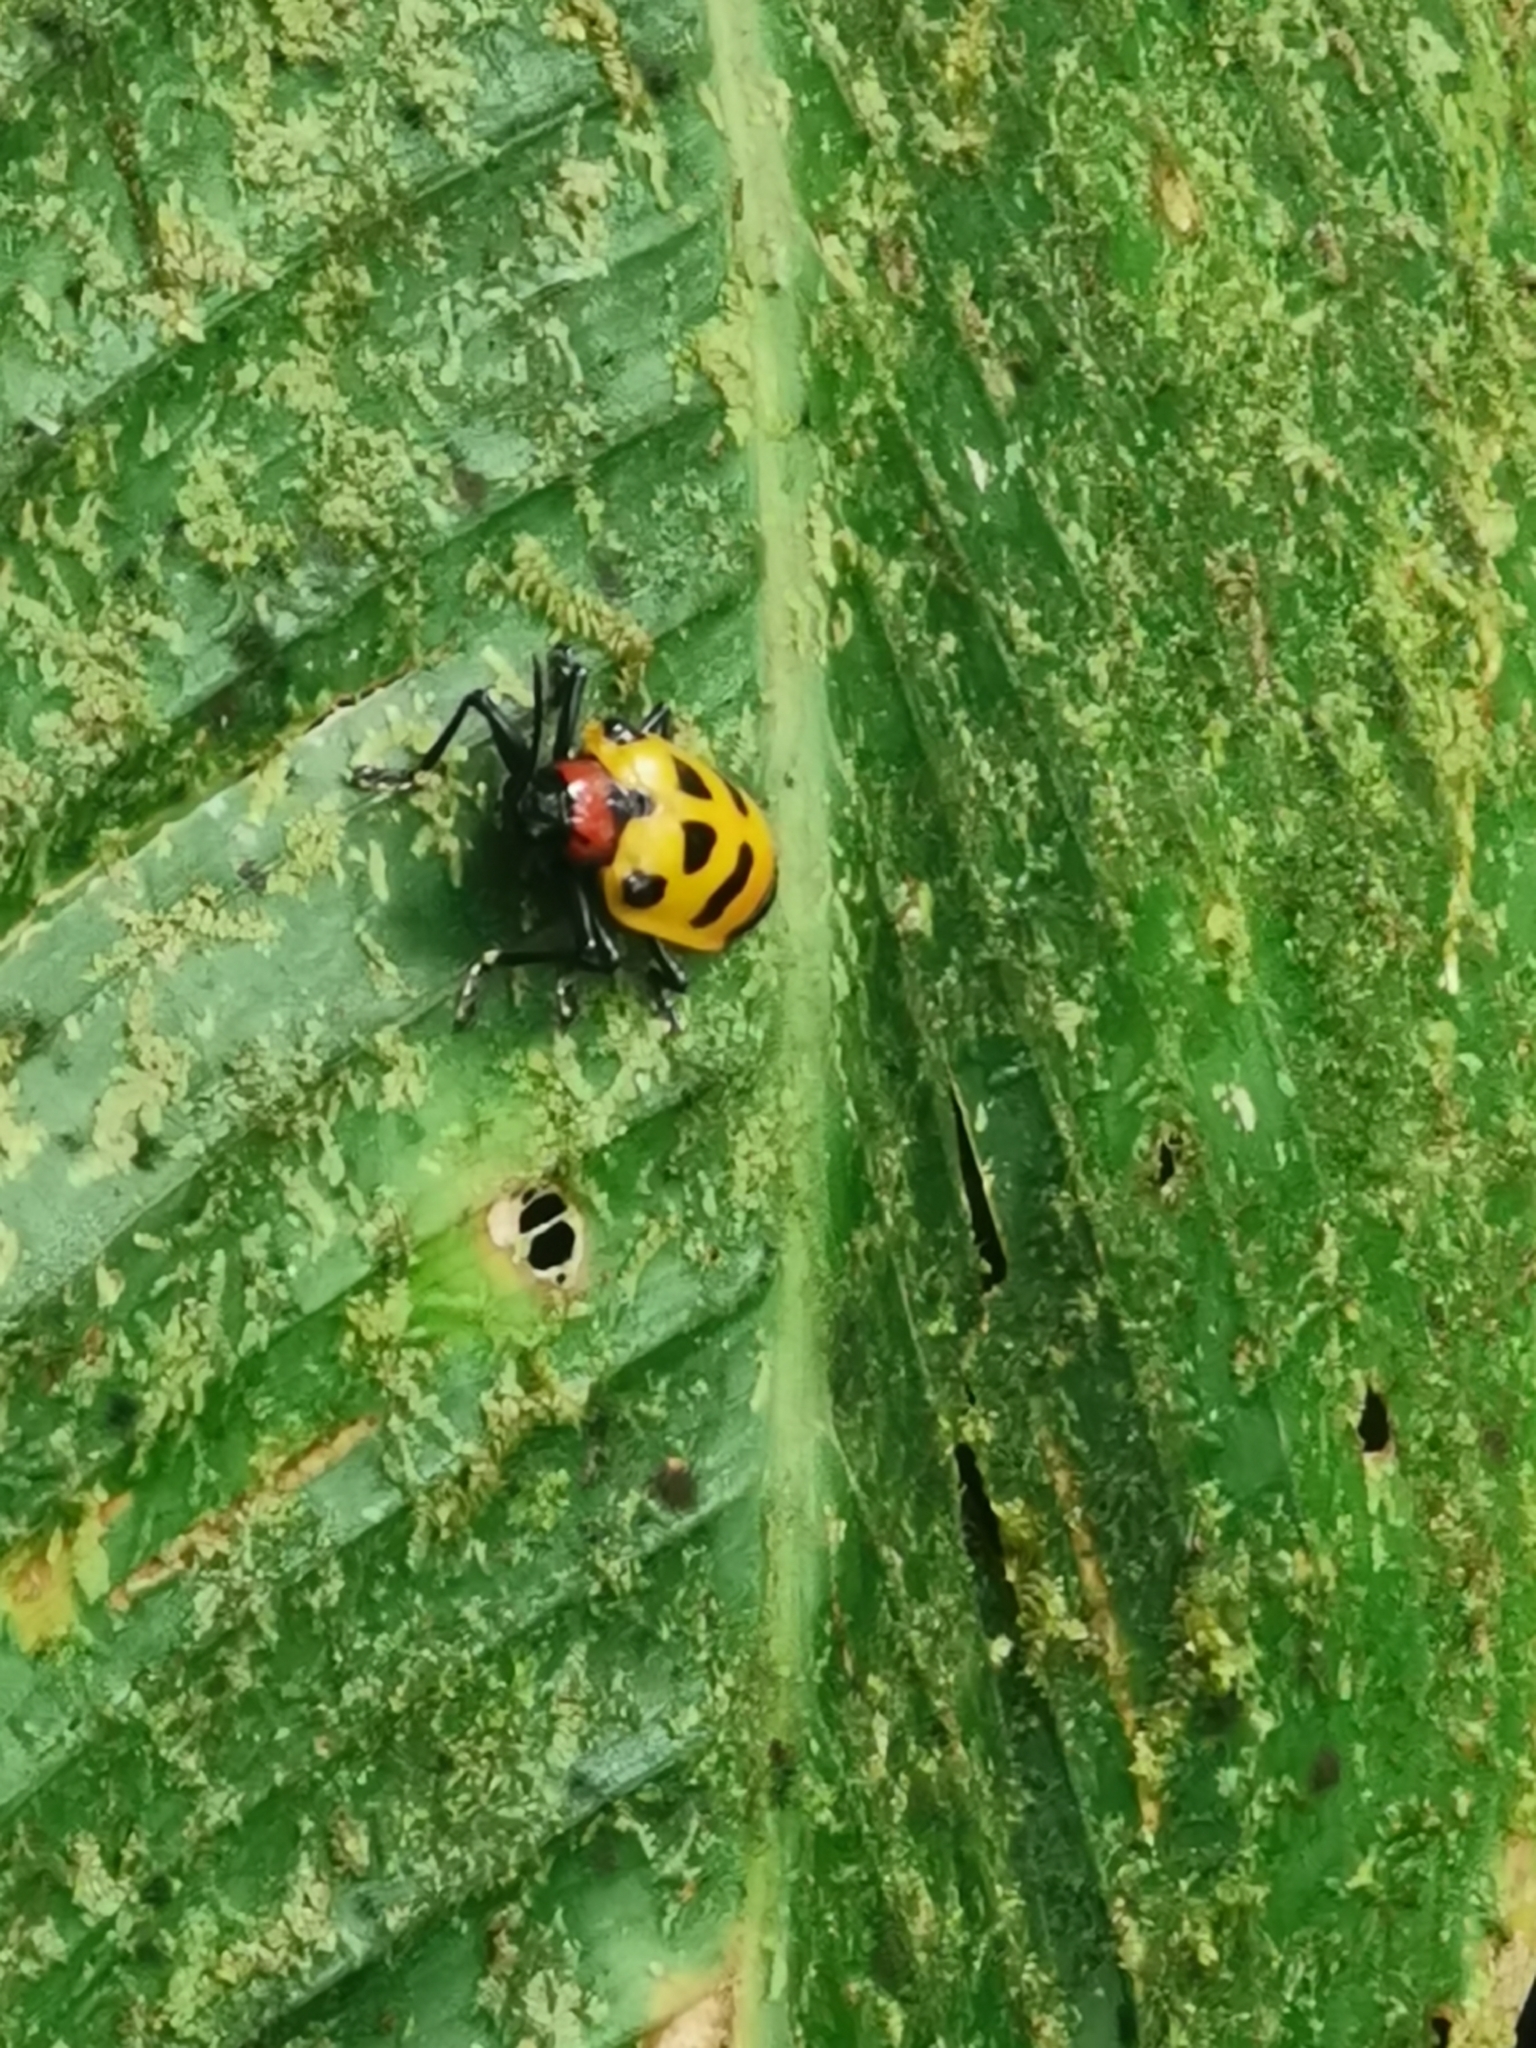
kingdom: Animalia
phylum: Arthropoda
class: Insecta
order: Coleoptera
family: Chrysomelidae
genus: Alurnus
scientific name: Alurnus ornatus
